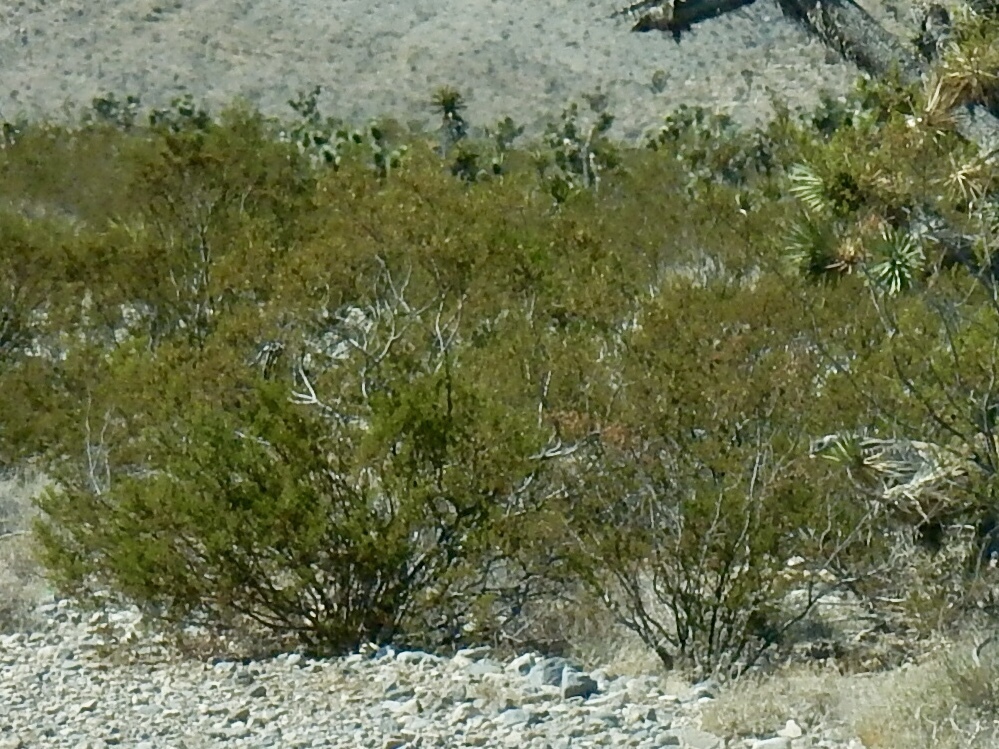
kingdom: Plantae
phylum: Tracheophyta
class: Magnoliopsida
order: Zygophyllales
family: Zygophyllaceae
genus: Larrea
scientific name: Larrea tridentata
